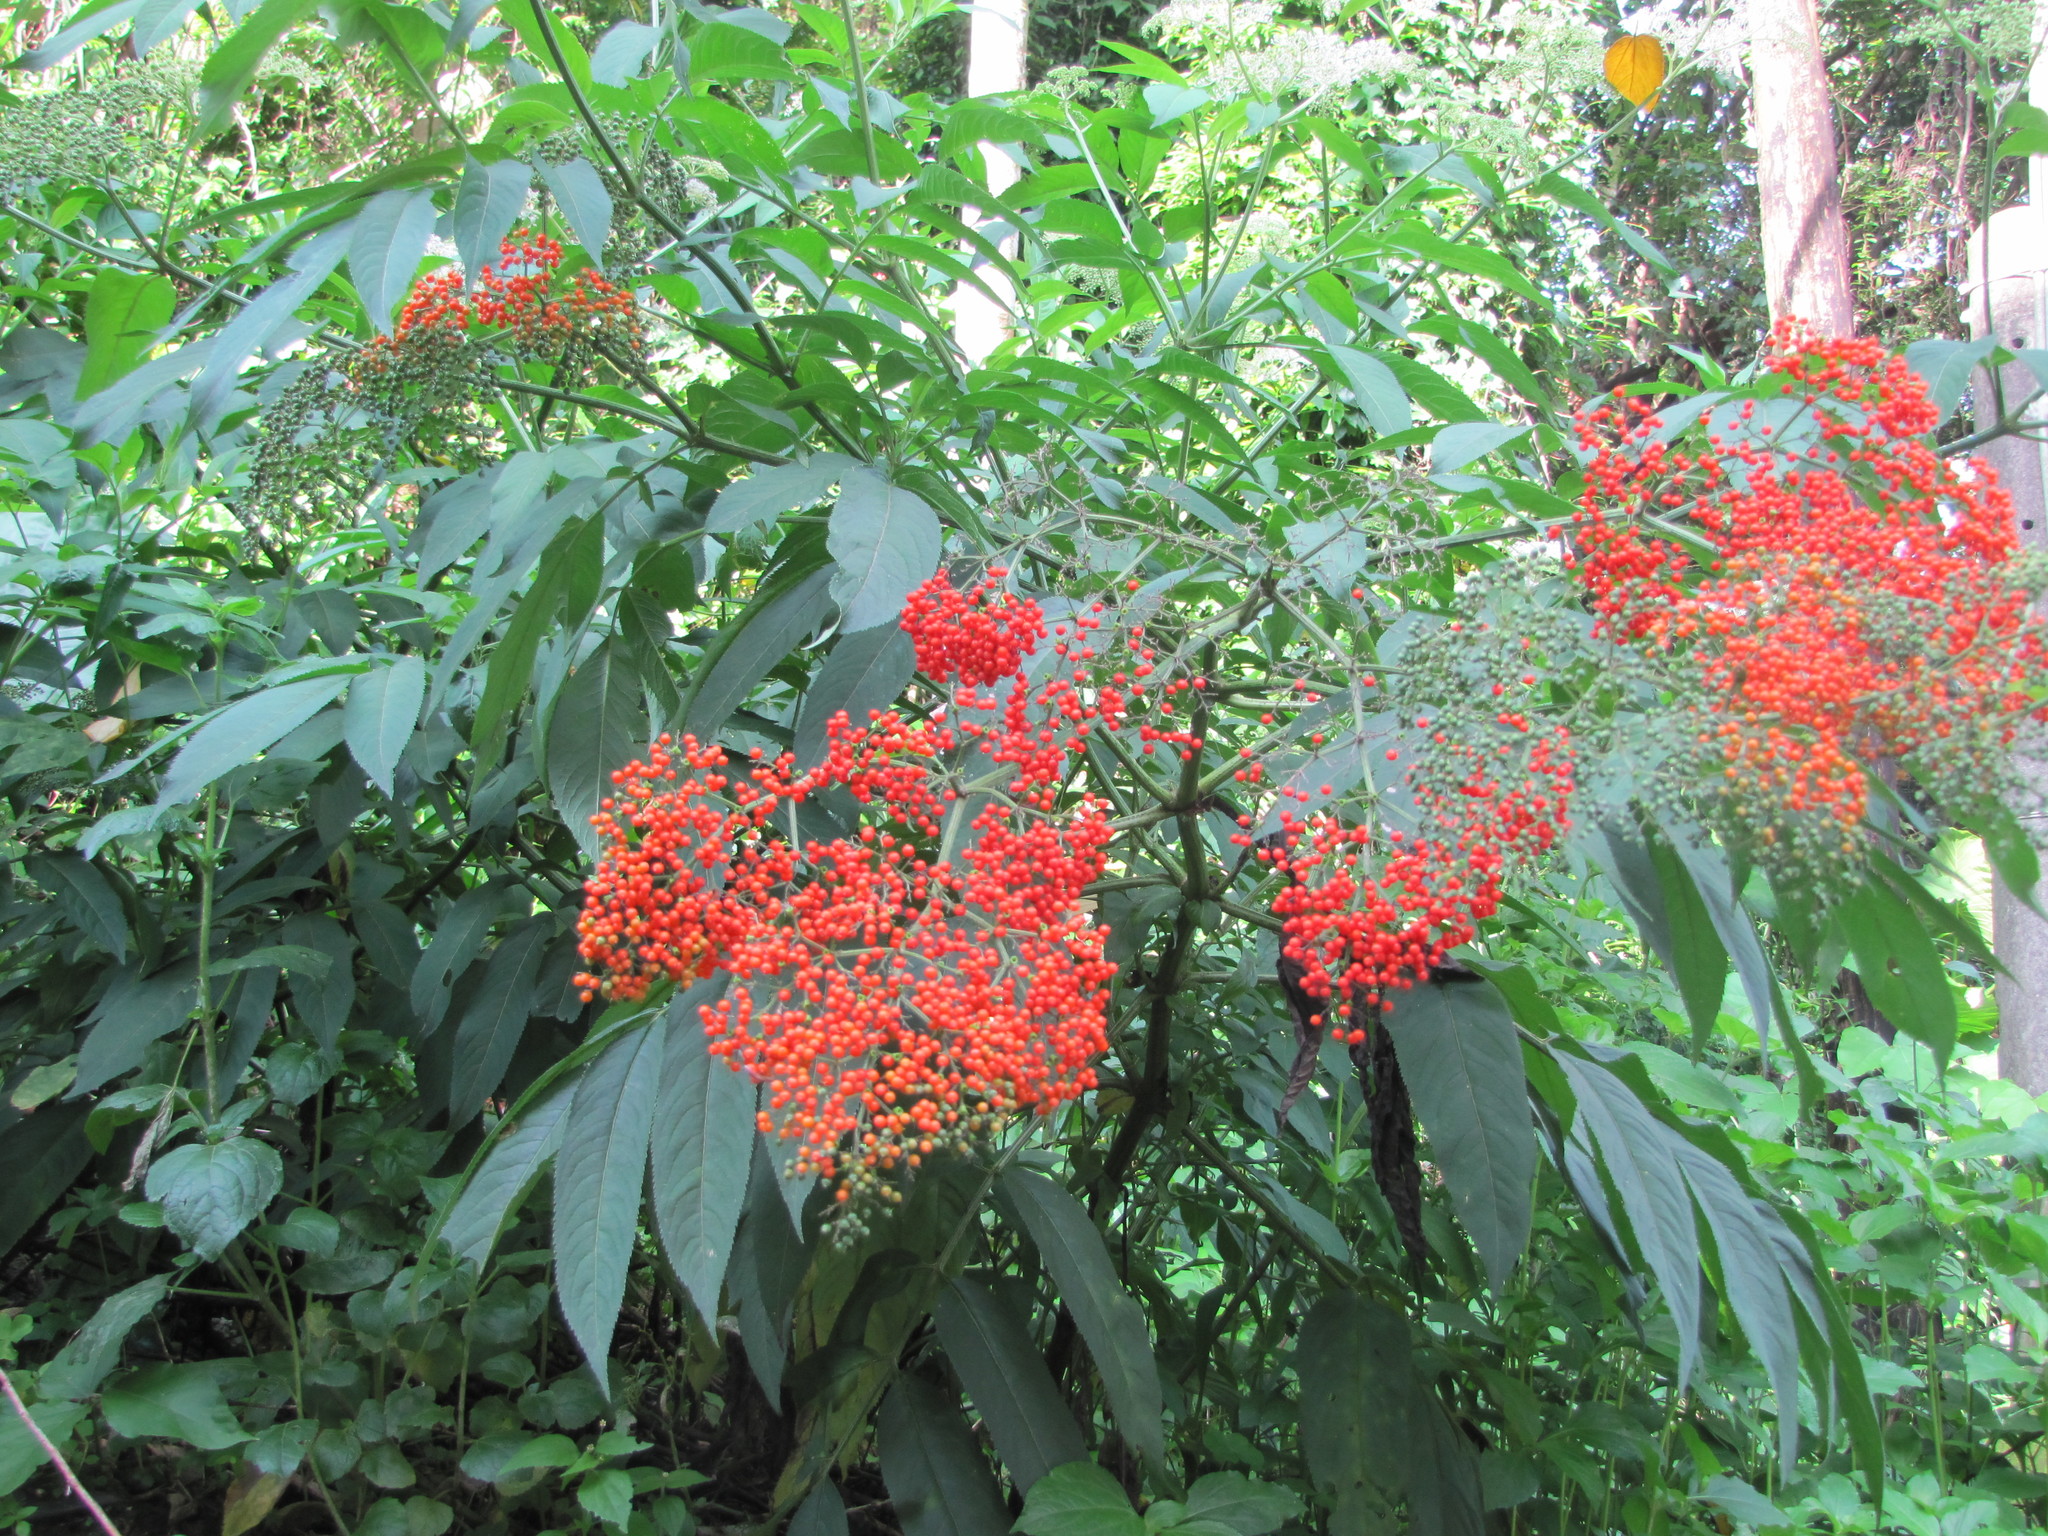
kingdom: Plantae
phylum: Tracheophyta
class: Magnoliopsida
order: Dipsacales
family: Viburnaceae
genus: Sambucus
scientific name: Sambucus javanica
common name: Chinese elder
